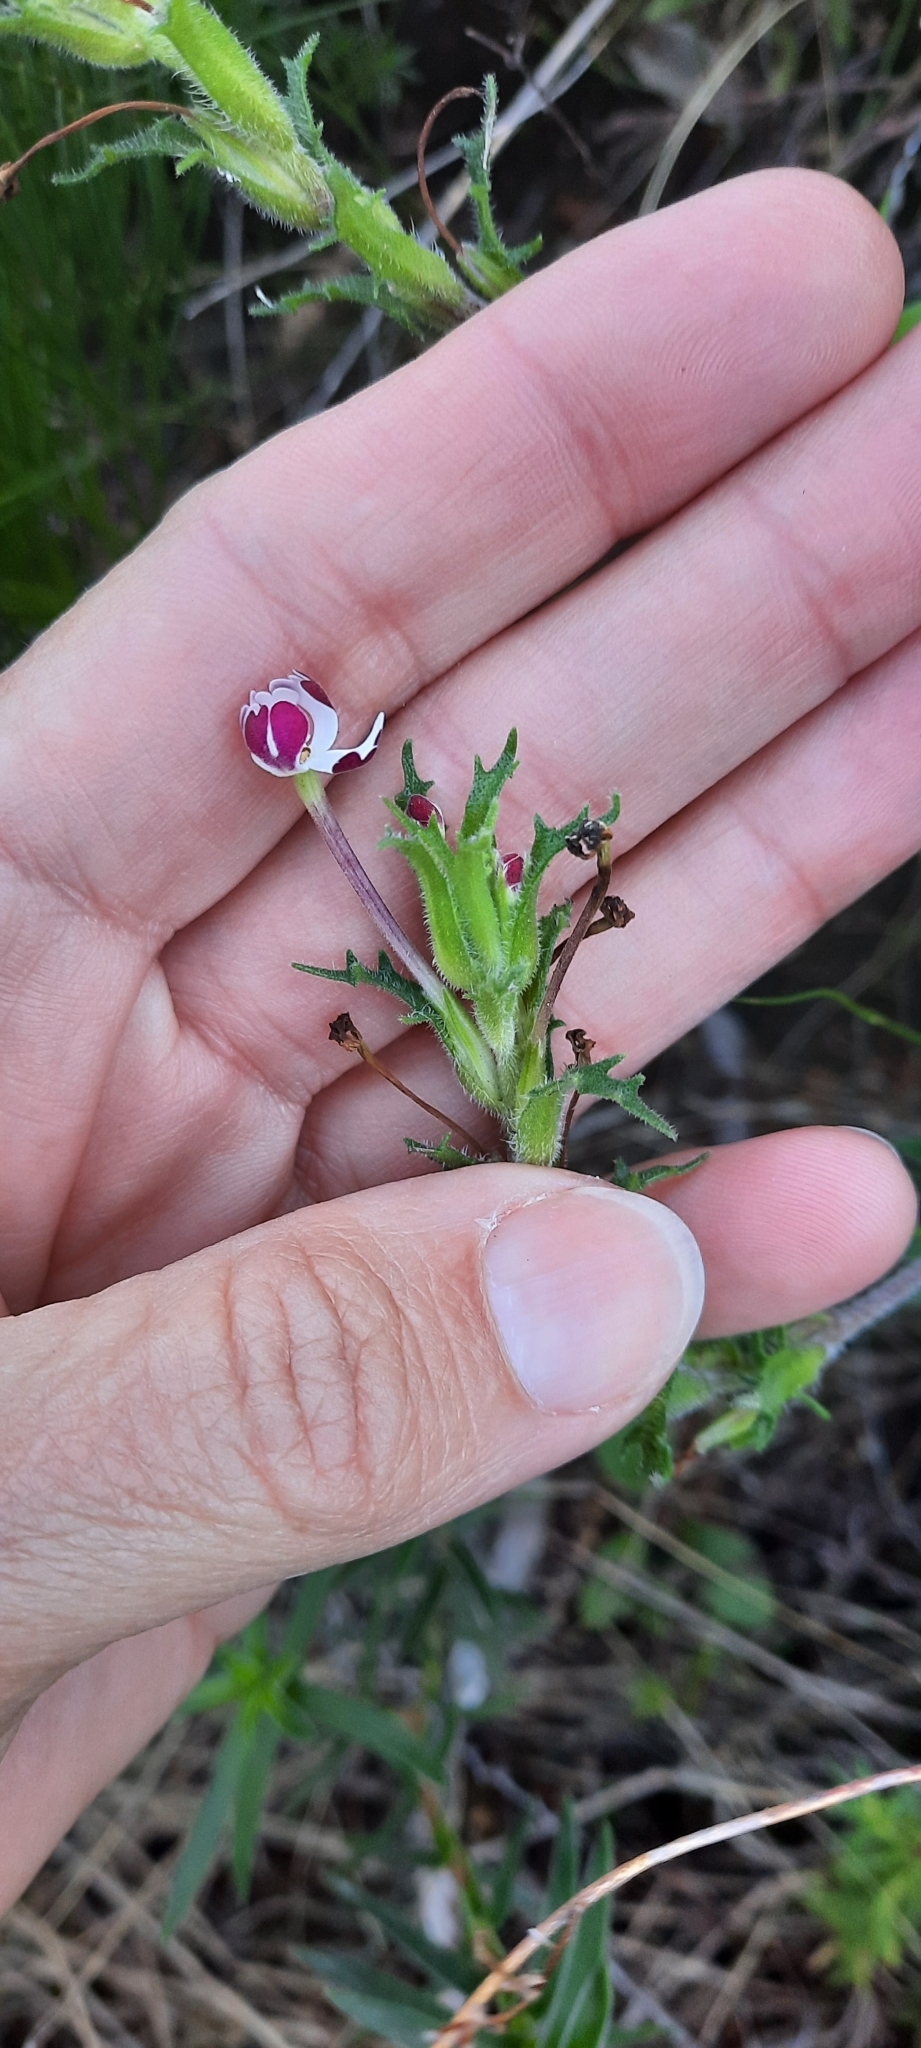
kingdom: Plantae
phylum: Tracheophyta
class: Magnoliopsida
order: Lamiales
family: Scrophulariaceae
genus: Zaluzianskya
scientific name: Zaluzianskya capensis
